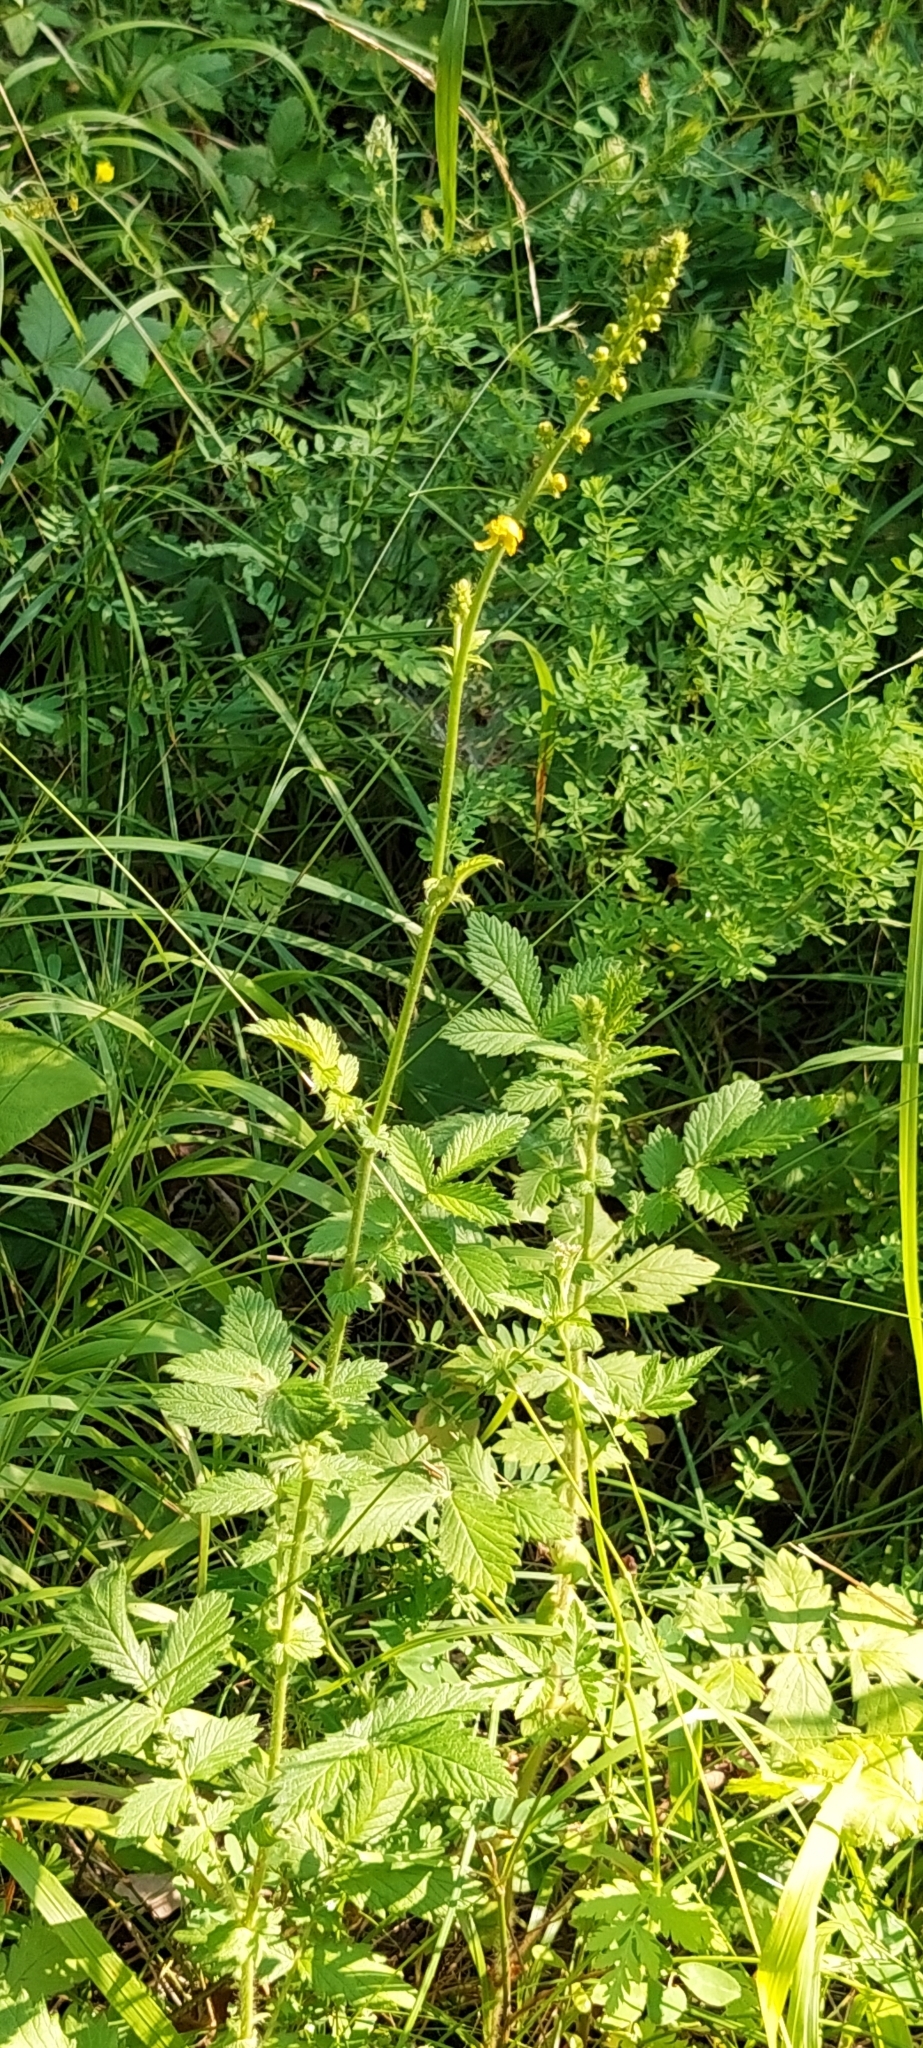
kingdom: Plantae
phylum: Tracheophyta
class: Magnoliopsida
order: Rosales
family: Rosaceae
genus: Agrimonia
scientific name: Agrimonia eupatoria
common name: Agrimony
